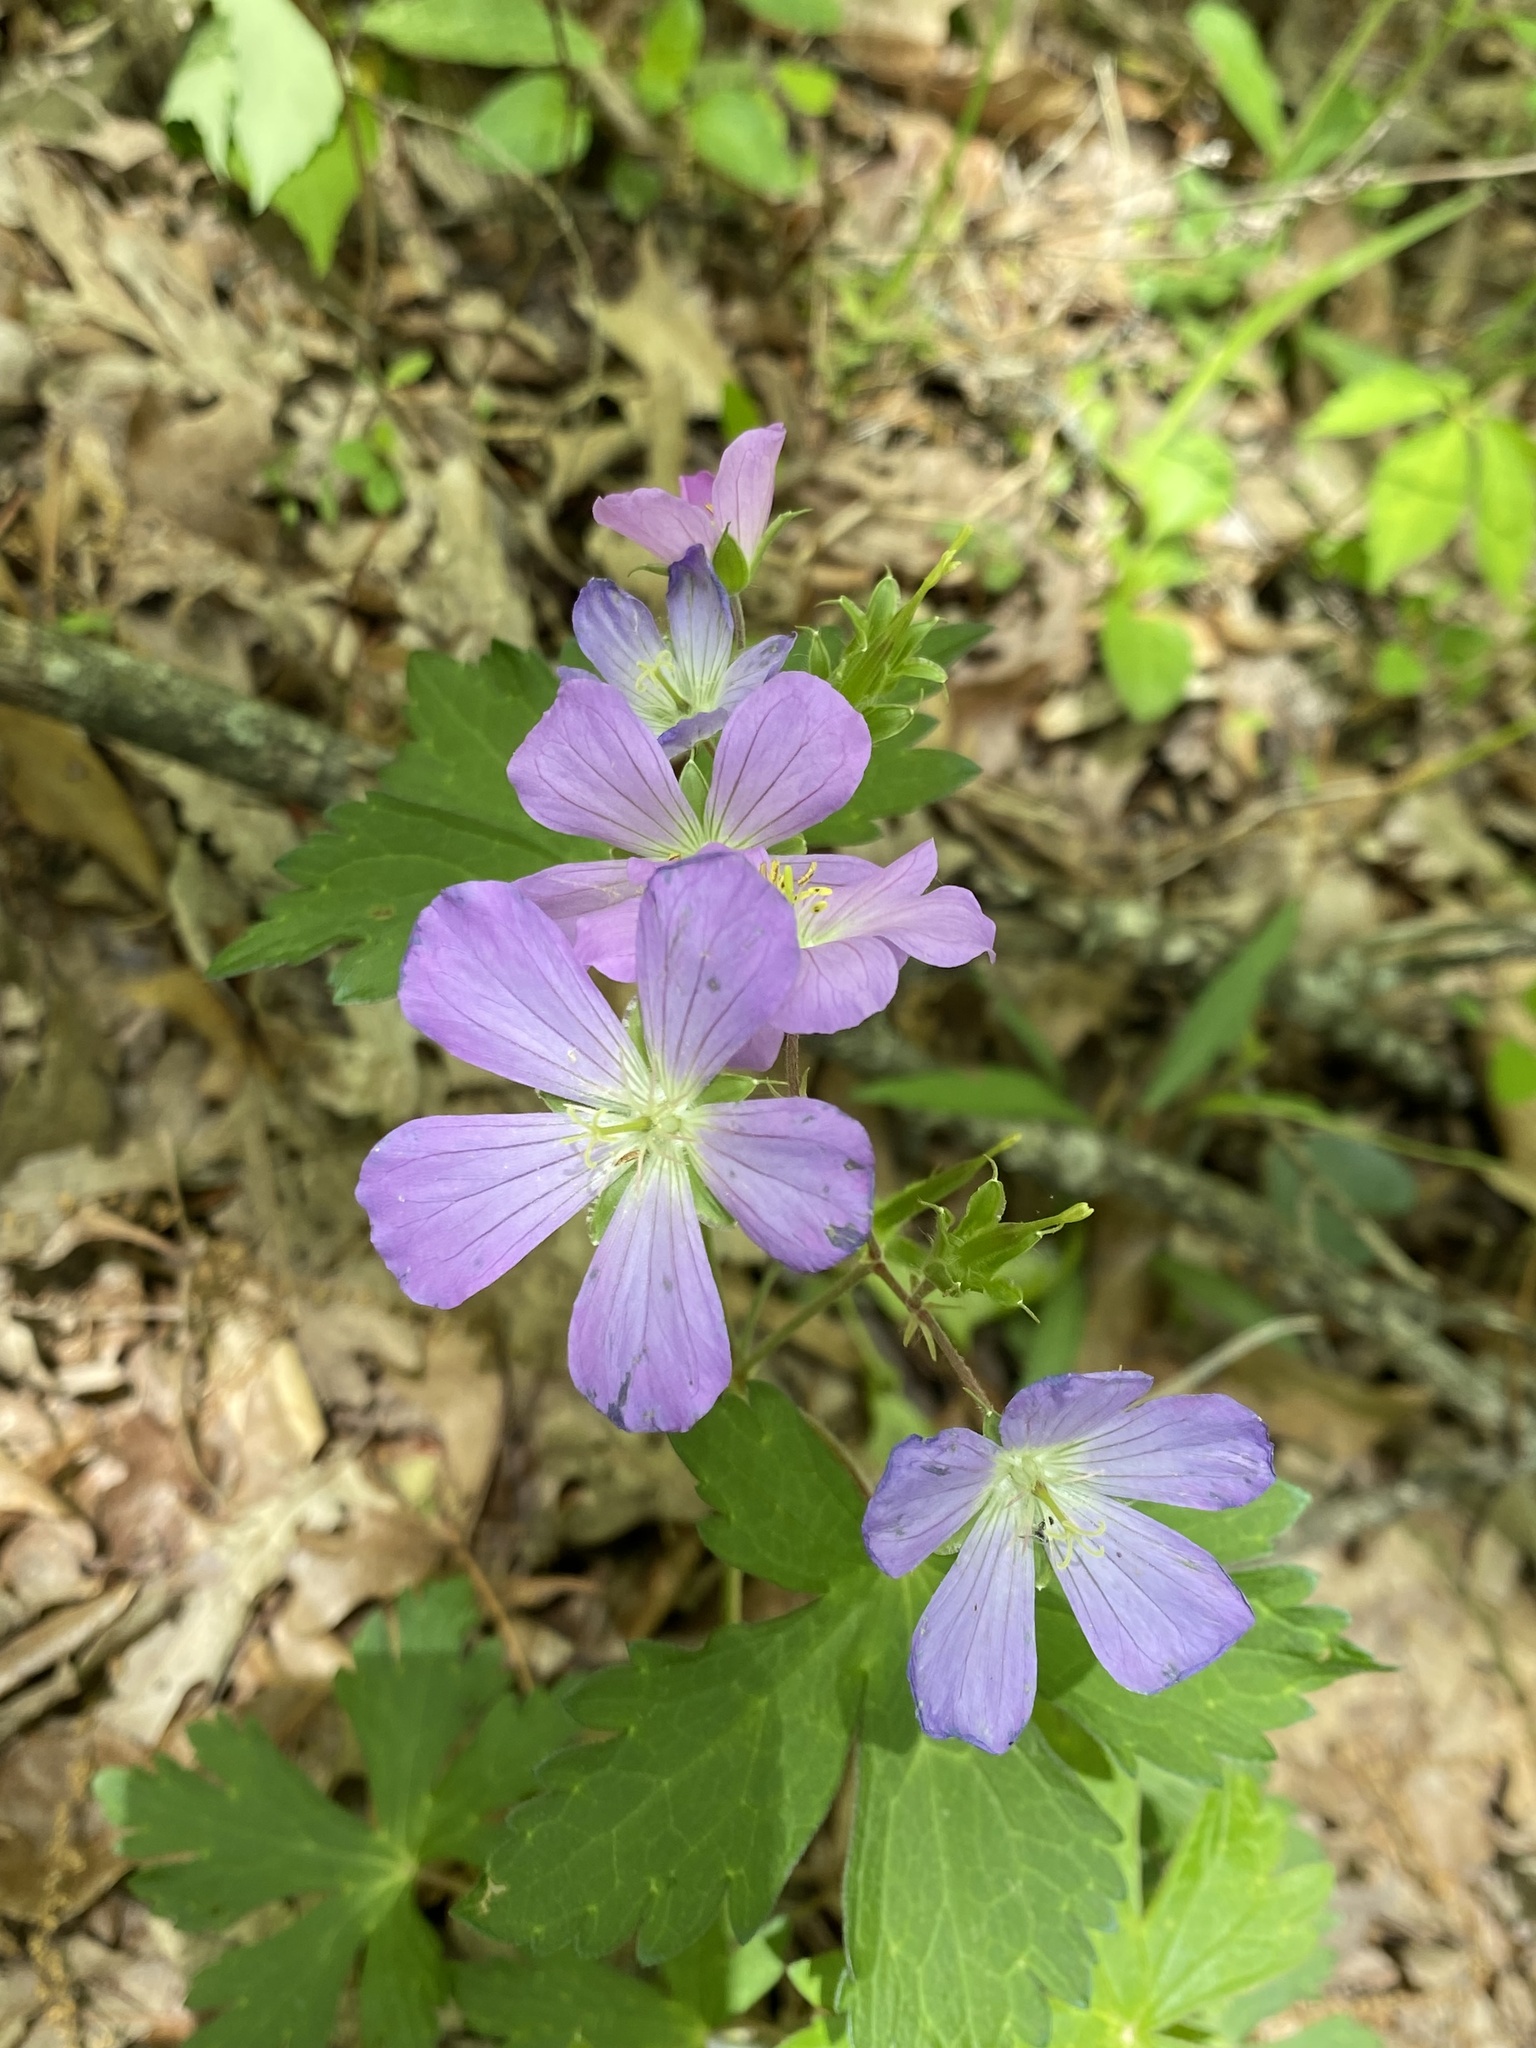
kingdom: Plantae
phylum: Tracheophyta
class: Magnoliopsida
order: Geraniales
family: Geraniaceae
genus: Geranium
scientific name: Geranium maculatum
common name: Spotted geranium
